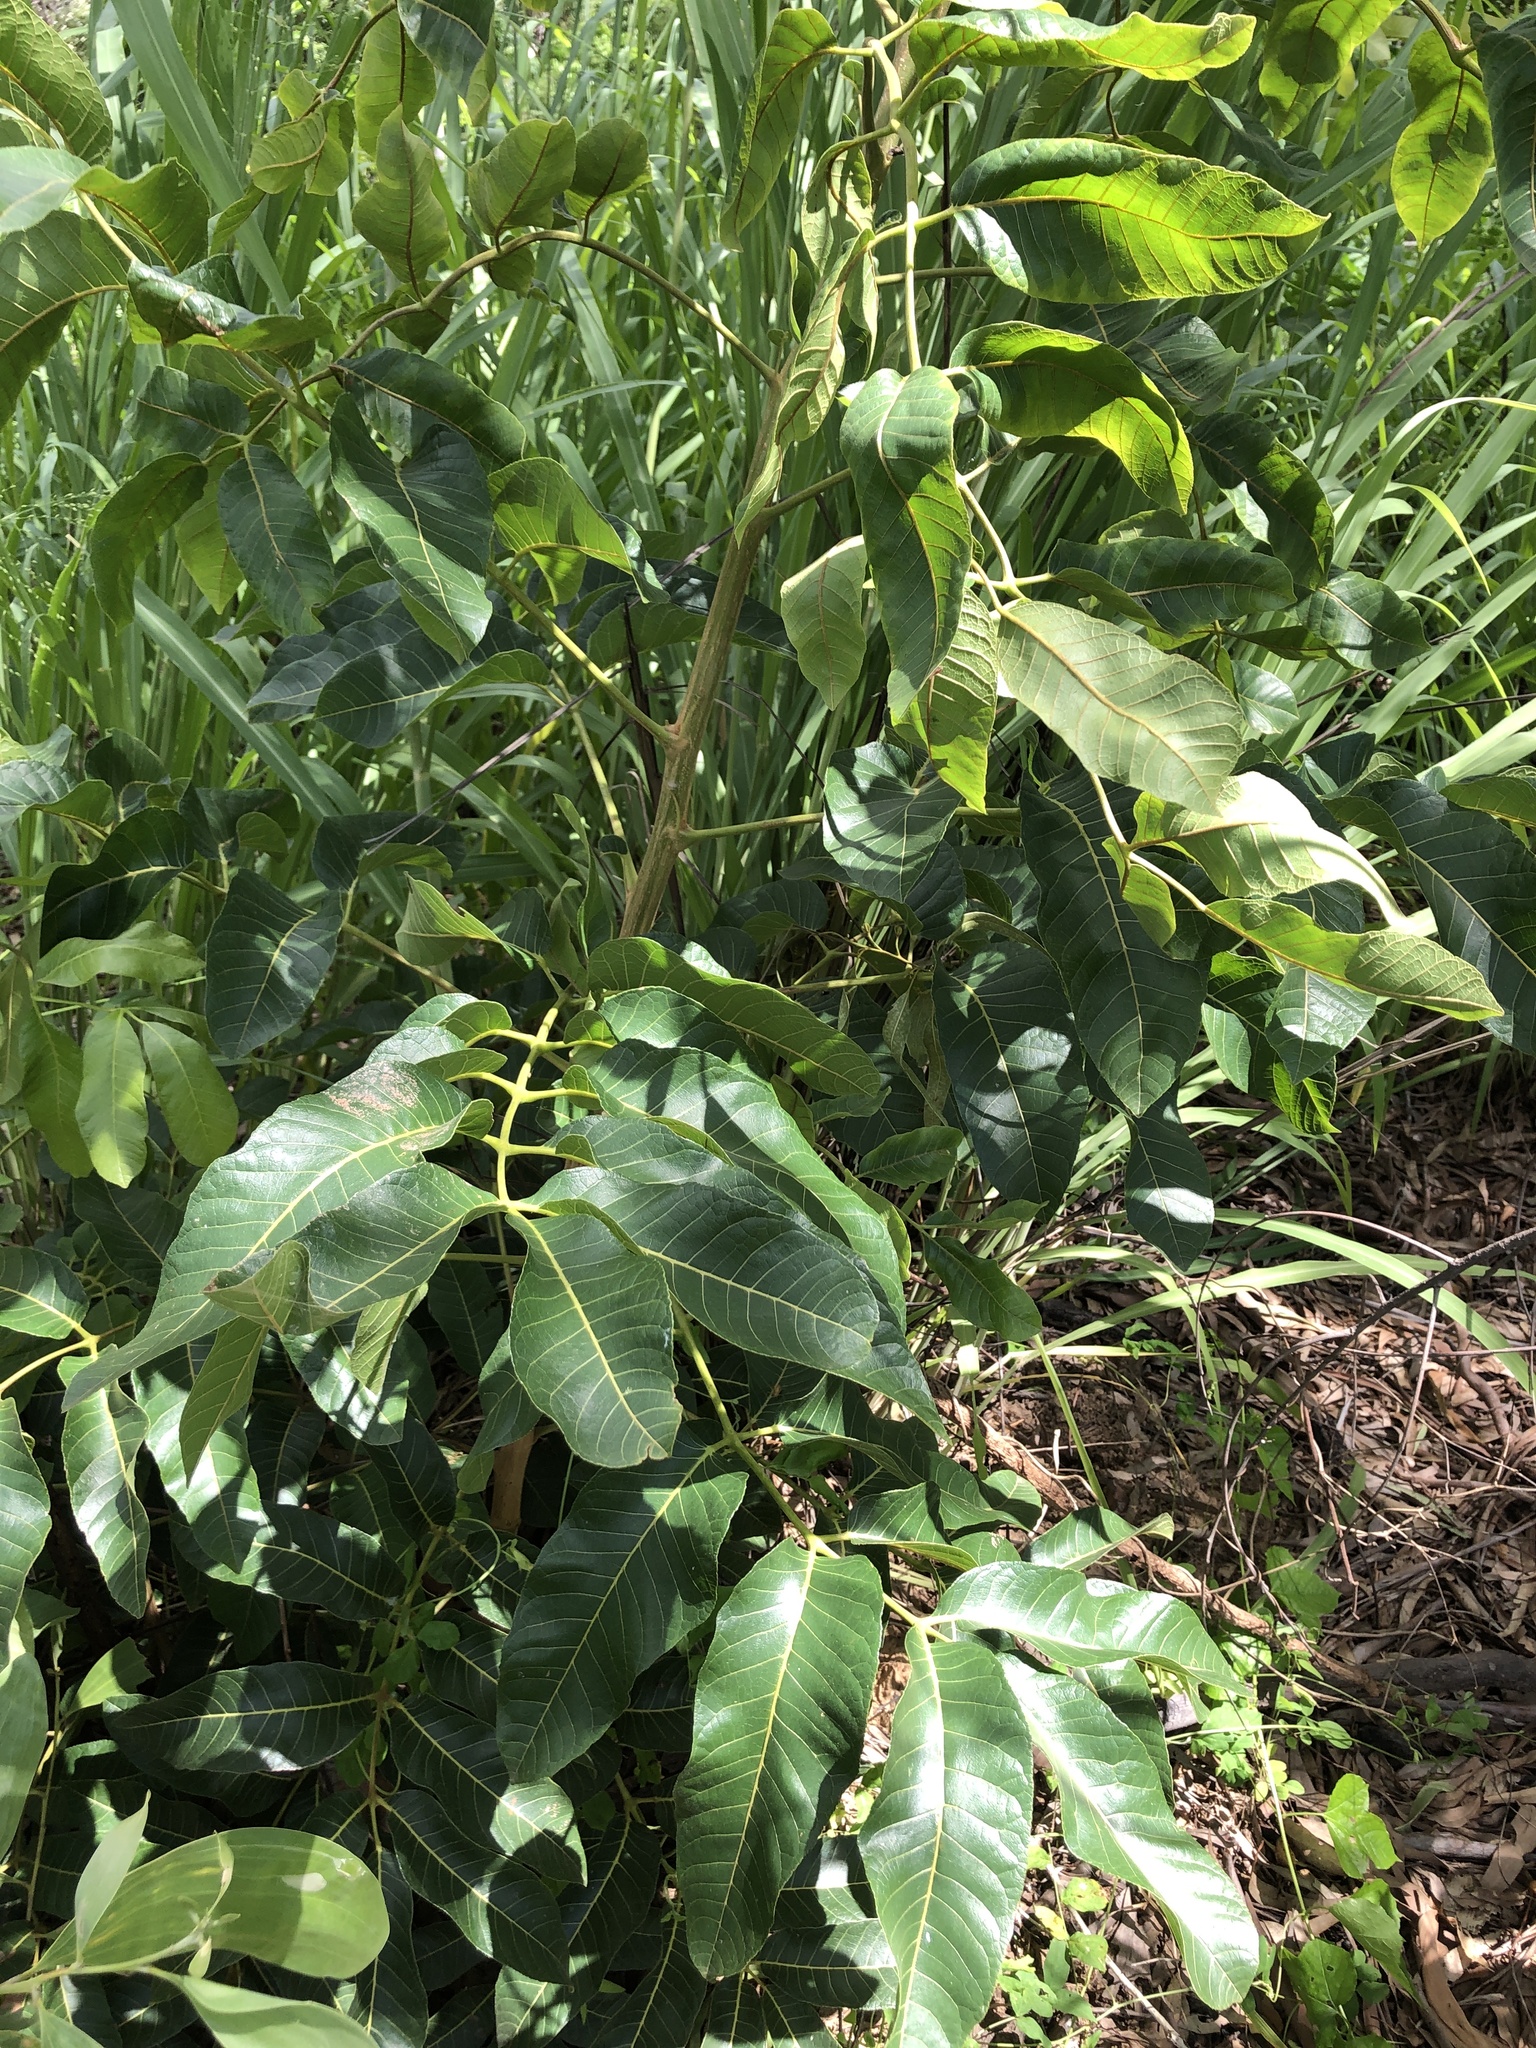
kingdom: Plantae
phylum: Tracheophyta
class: Magnoliopsida
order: Sapindales
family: Burseraceae
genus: Canarium
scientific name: Canarium australianum
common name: Island white-beech
